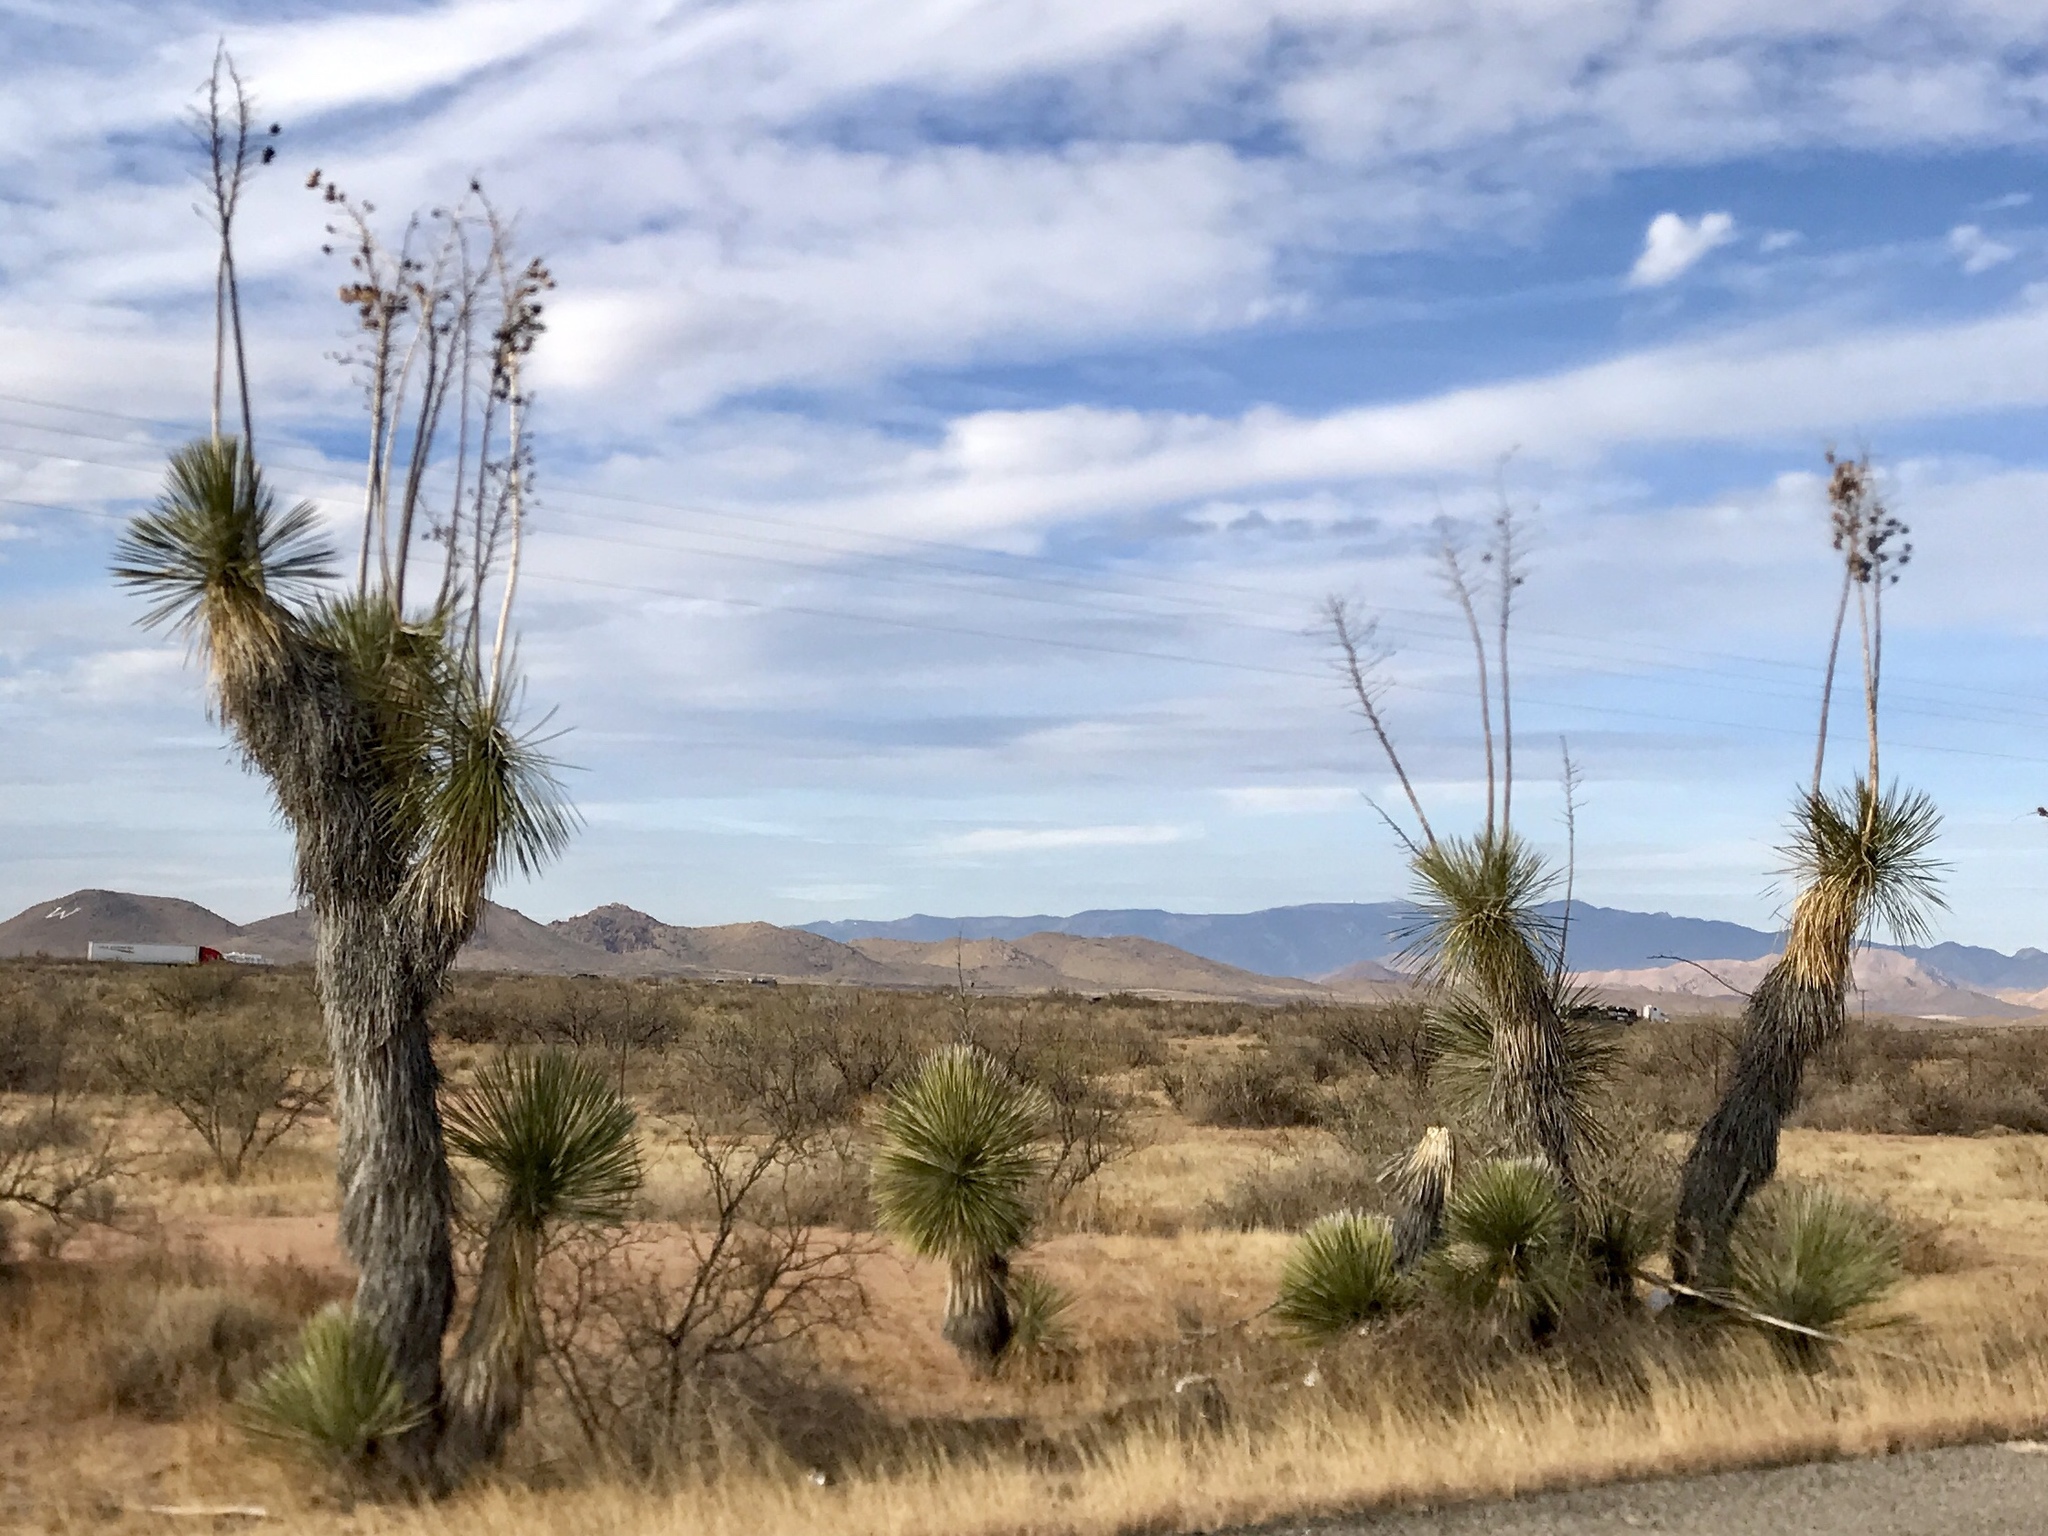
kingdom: Plantae
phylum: Tracheophyta
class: Liliopsida
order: Asparagales
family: Asparagaceae
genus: Yucca
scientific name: Yucca elata
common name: Palmella
